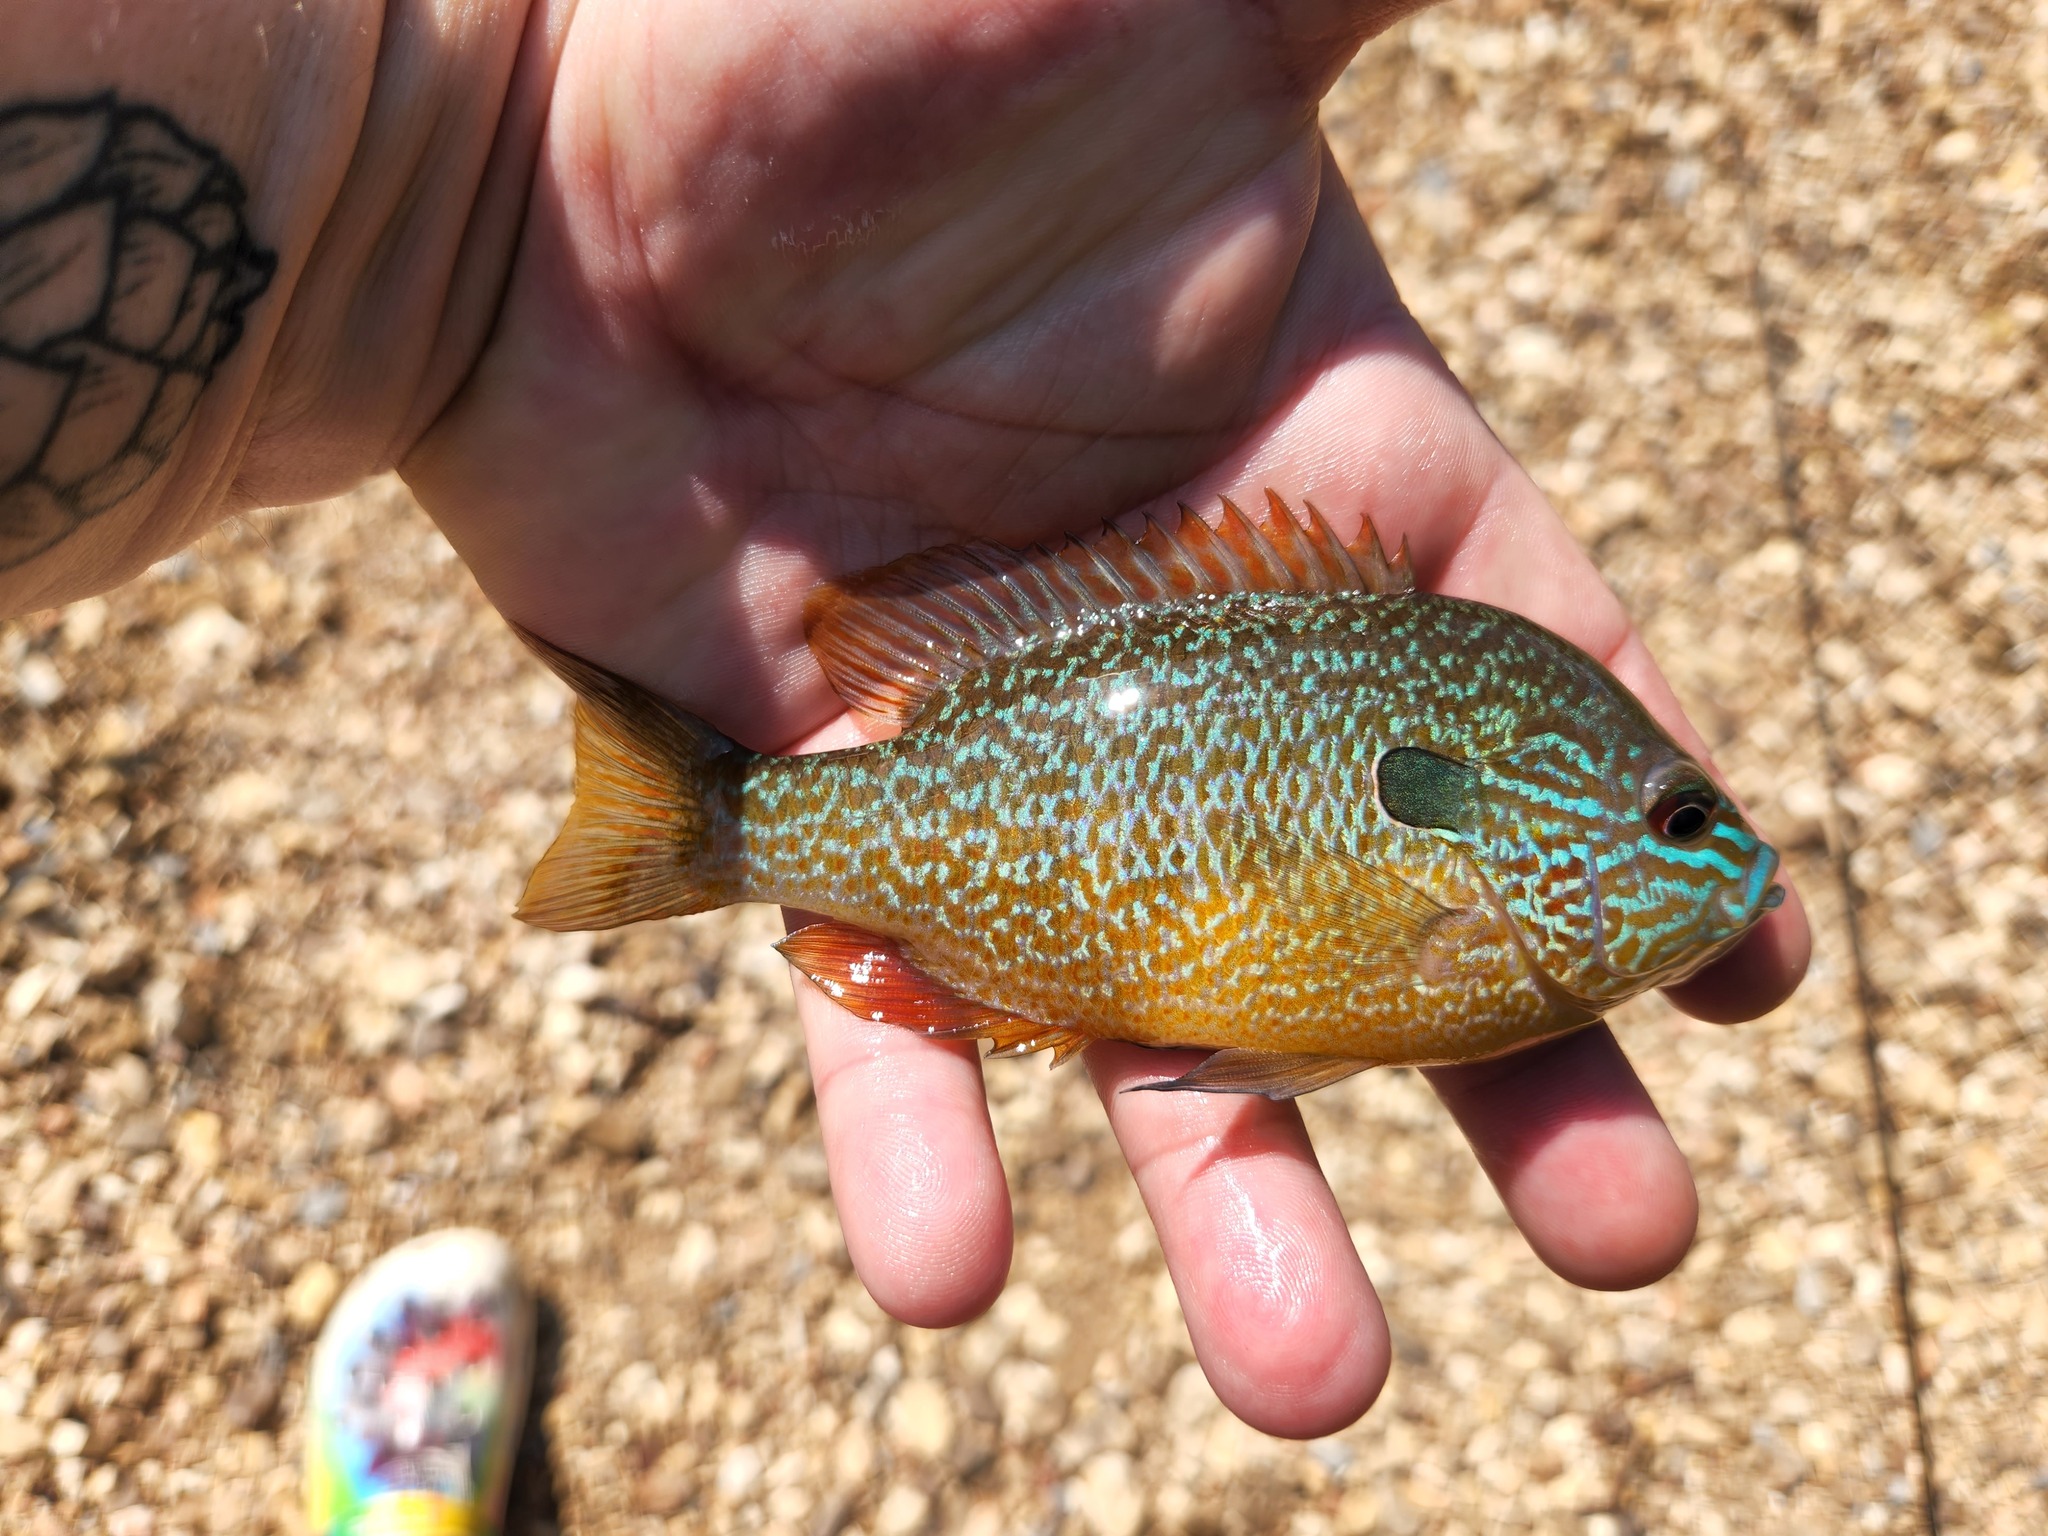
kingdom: Animalia
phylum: Chordata
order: Perciformes
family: Centrarchidae
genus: Lepomis
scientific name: Lepomis megalotis
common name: Longear sunfish
